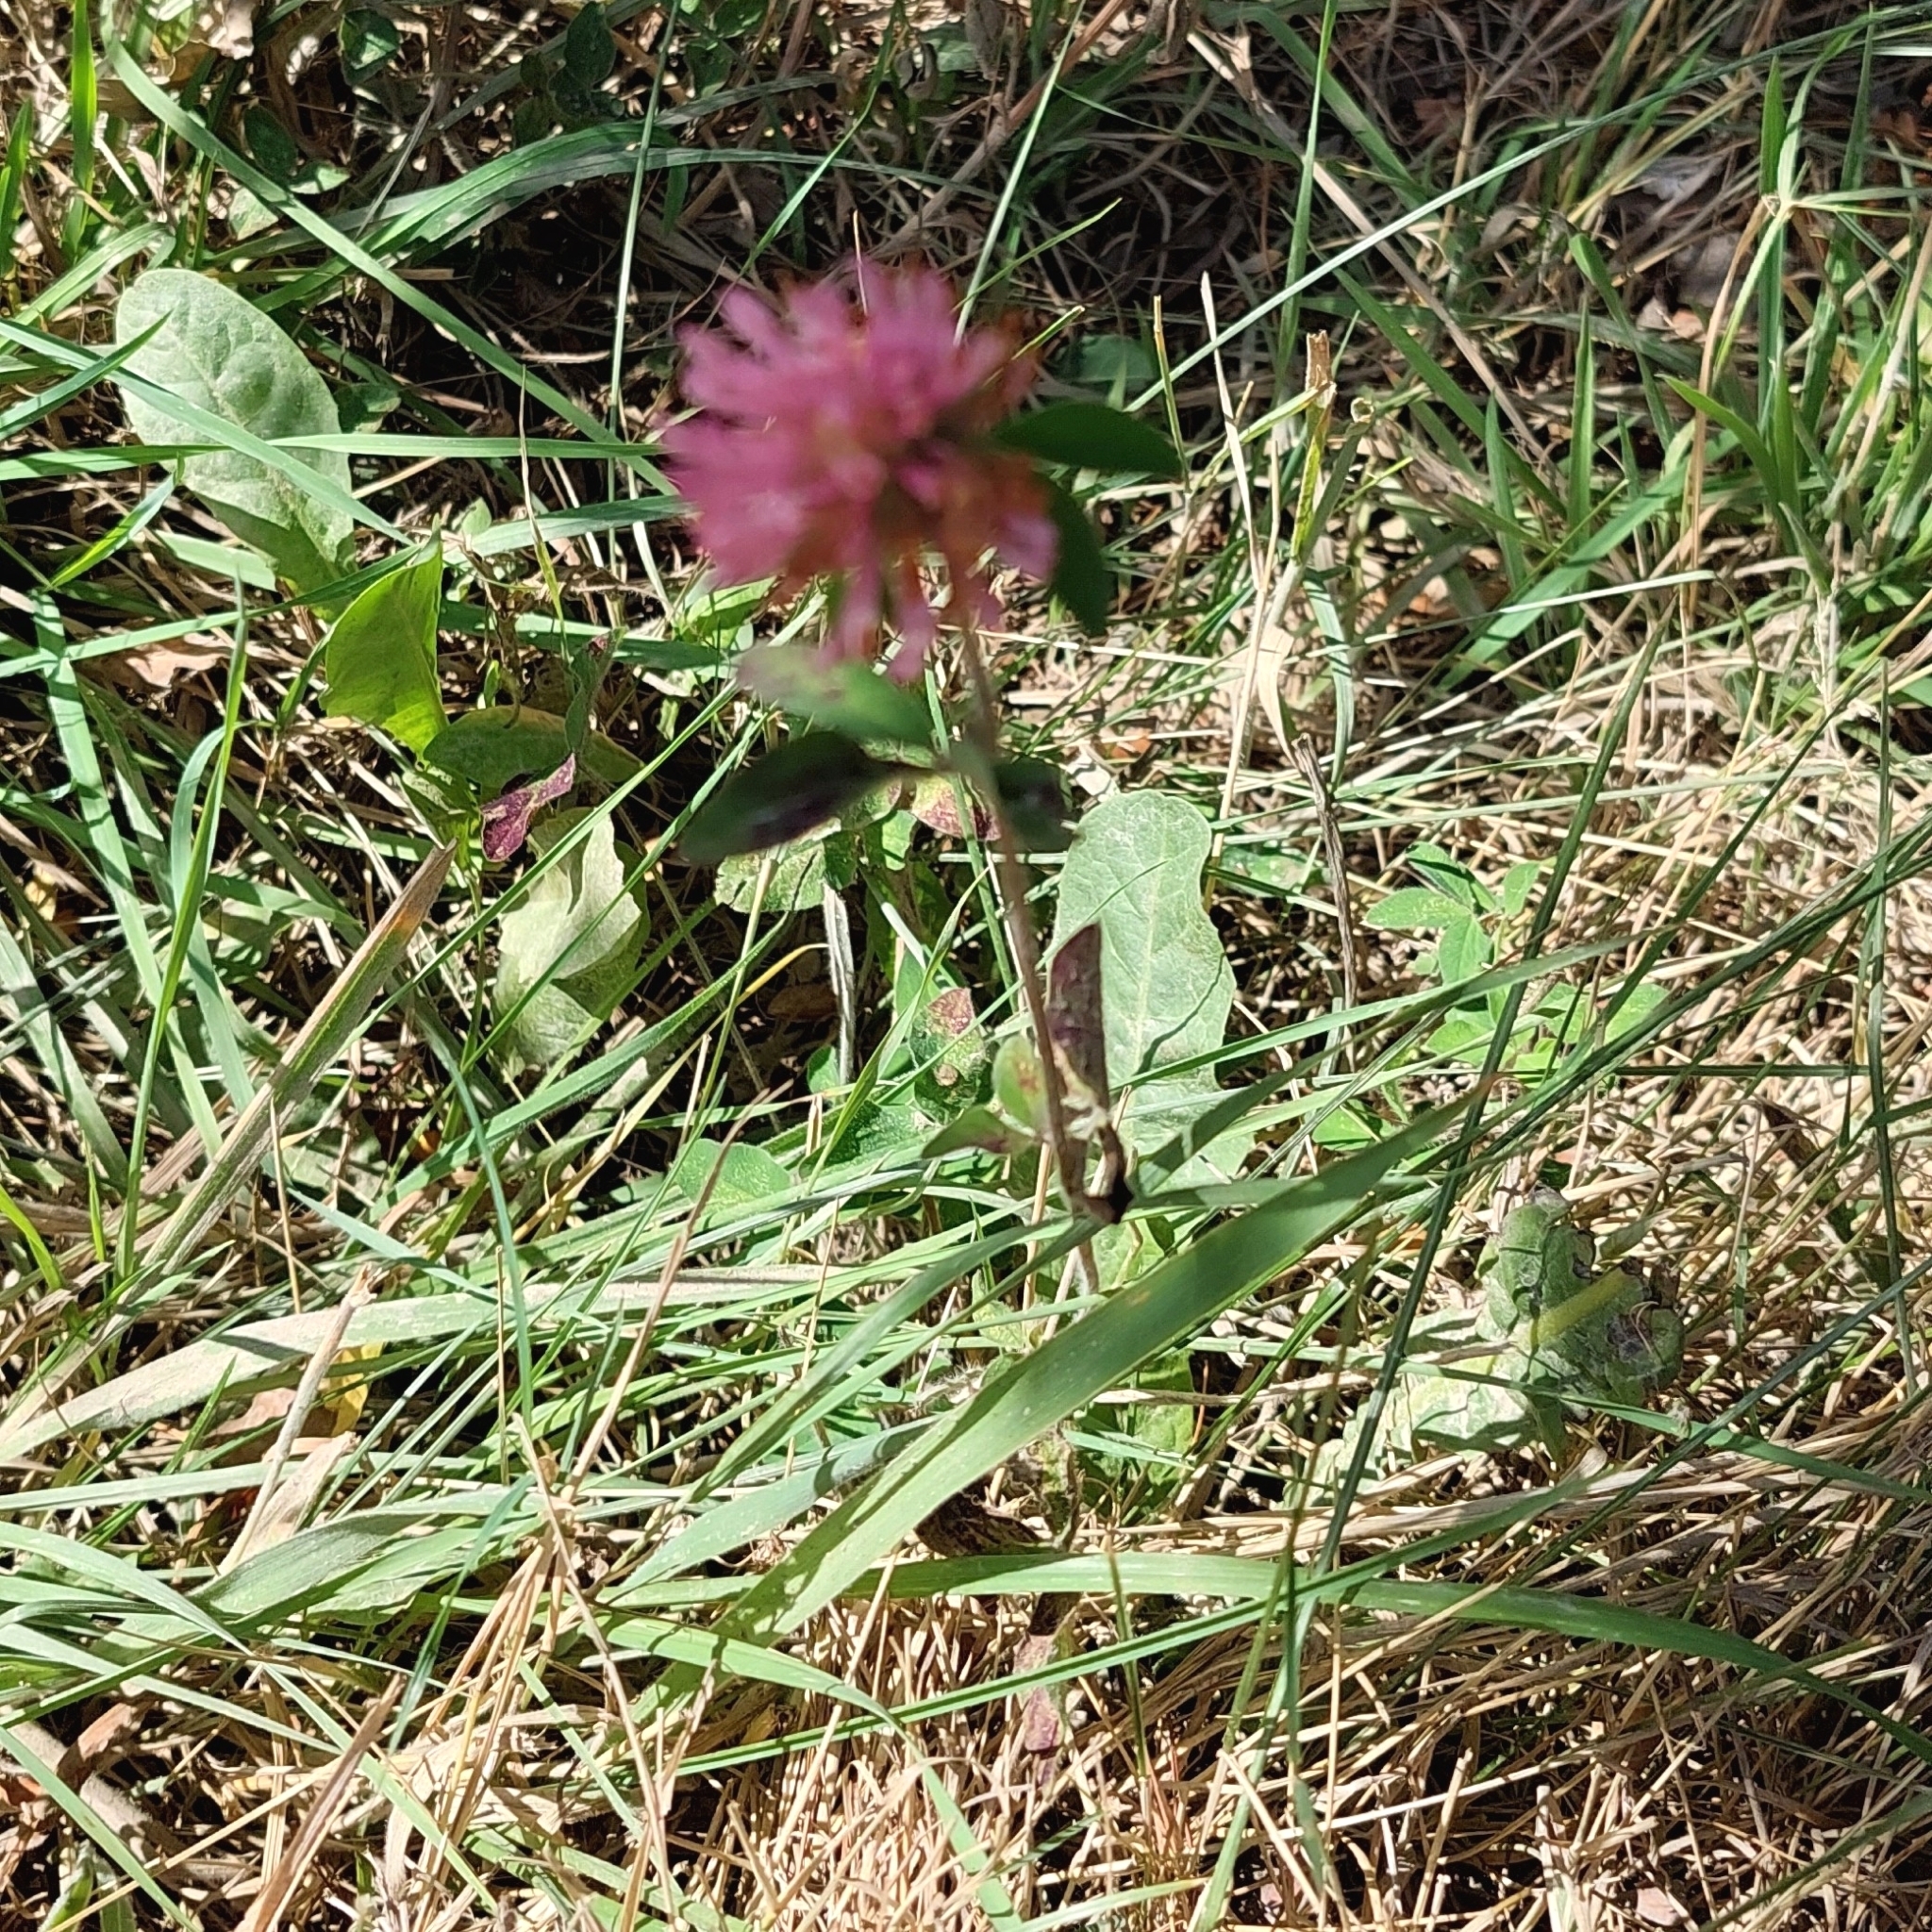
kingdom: Plantae
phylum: Tracheophyta
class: Magnoliopsida
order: Fabales
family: Fabaceae
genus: Trifolium
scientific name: Trifolium pratense
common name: Red clover
